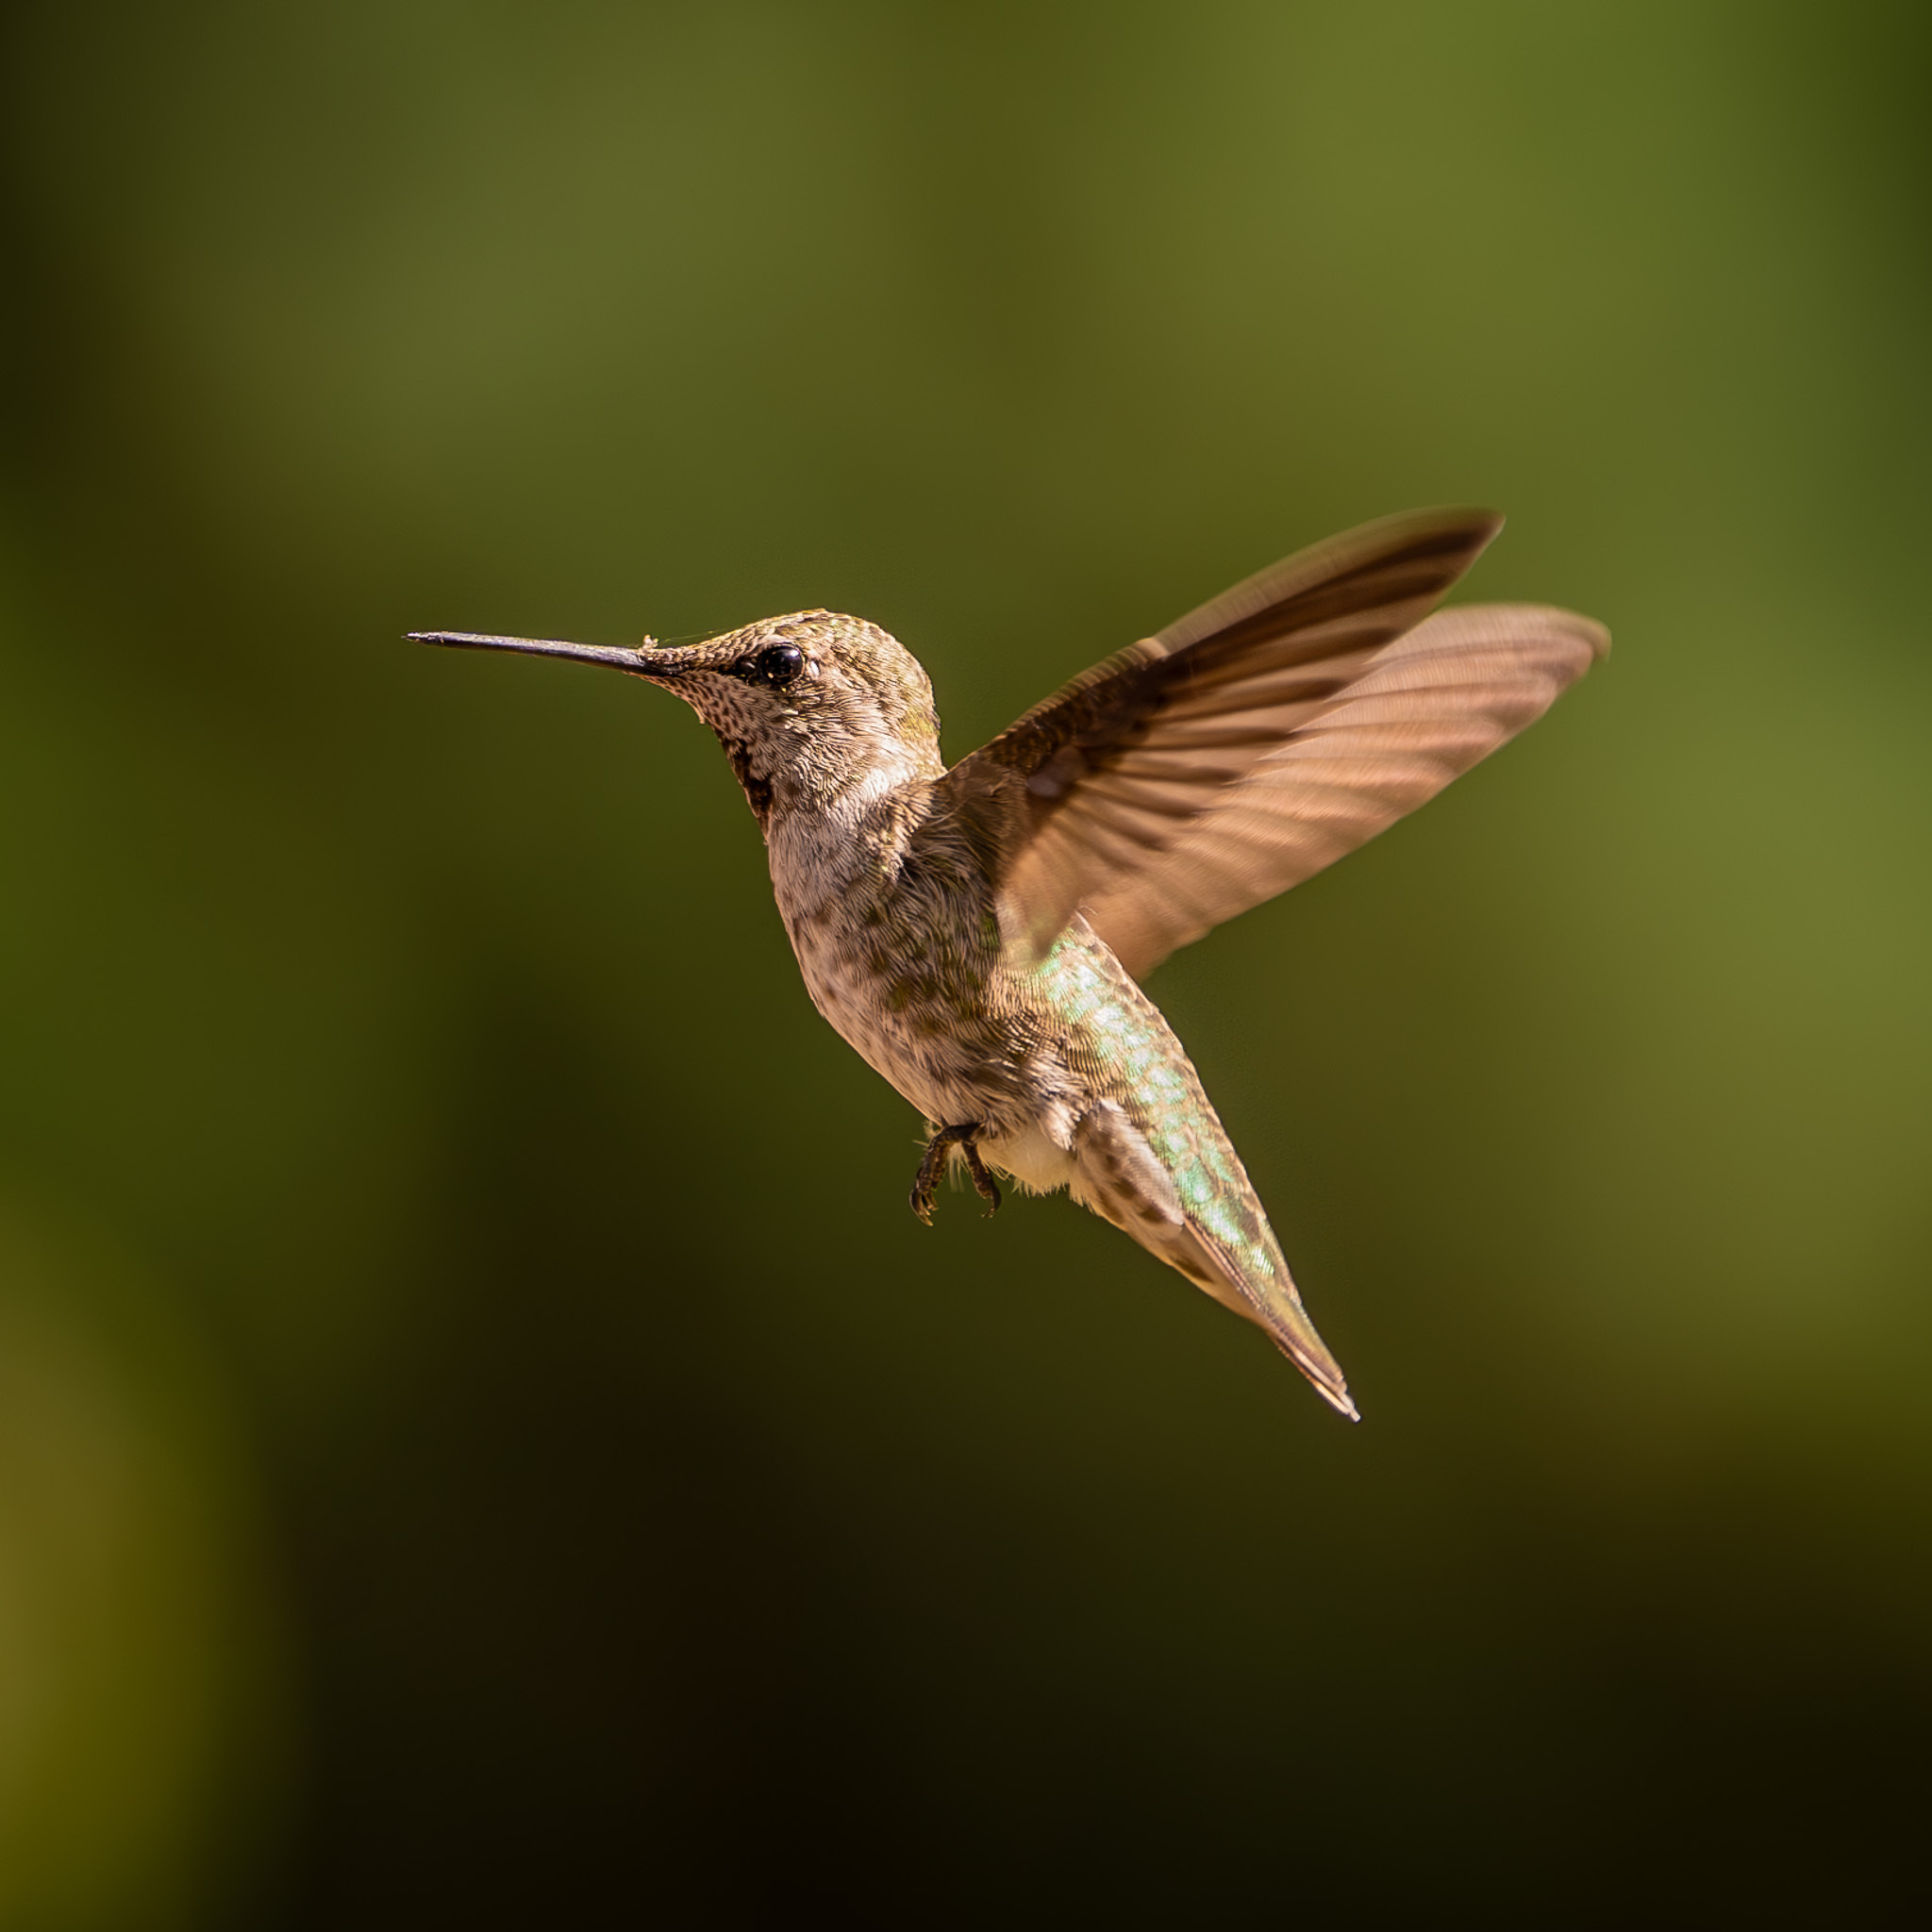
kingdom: Animalia
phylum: Chordata
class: Aves
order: Apodiformes
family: Trochilidae
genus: Calypte
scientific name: Calypte anna
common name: Anna's hummingbird
